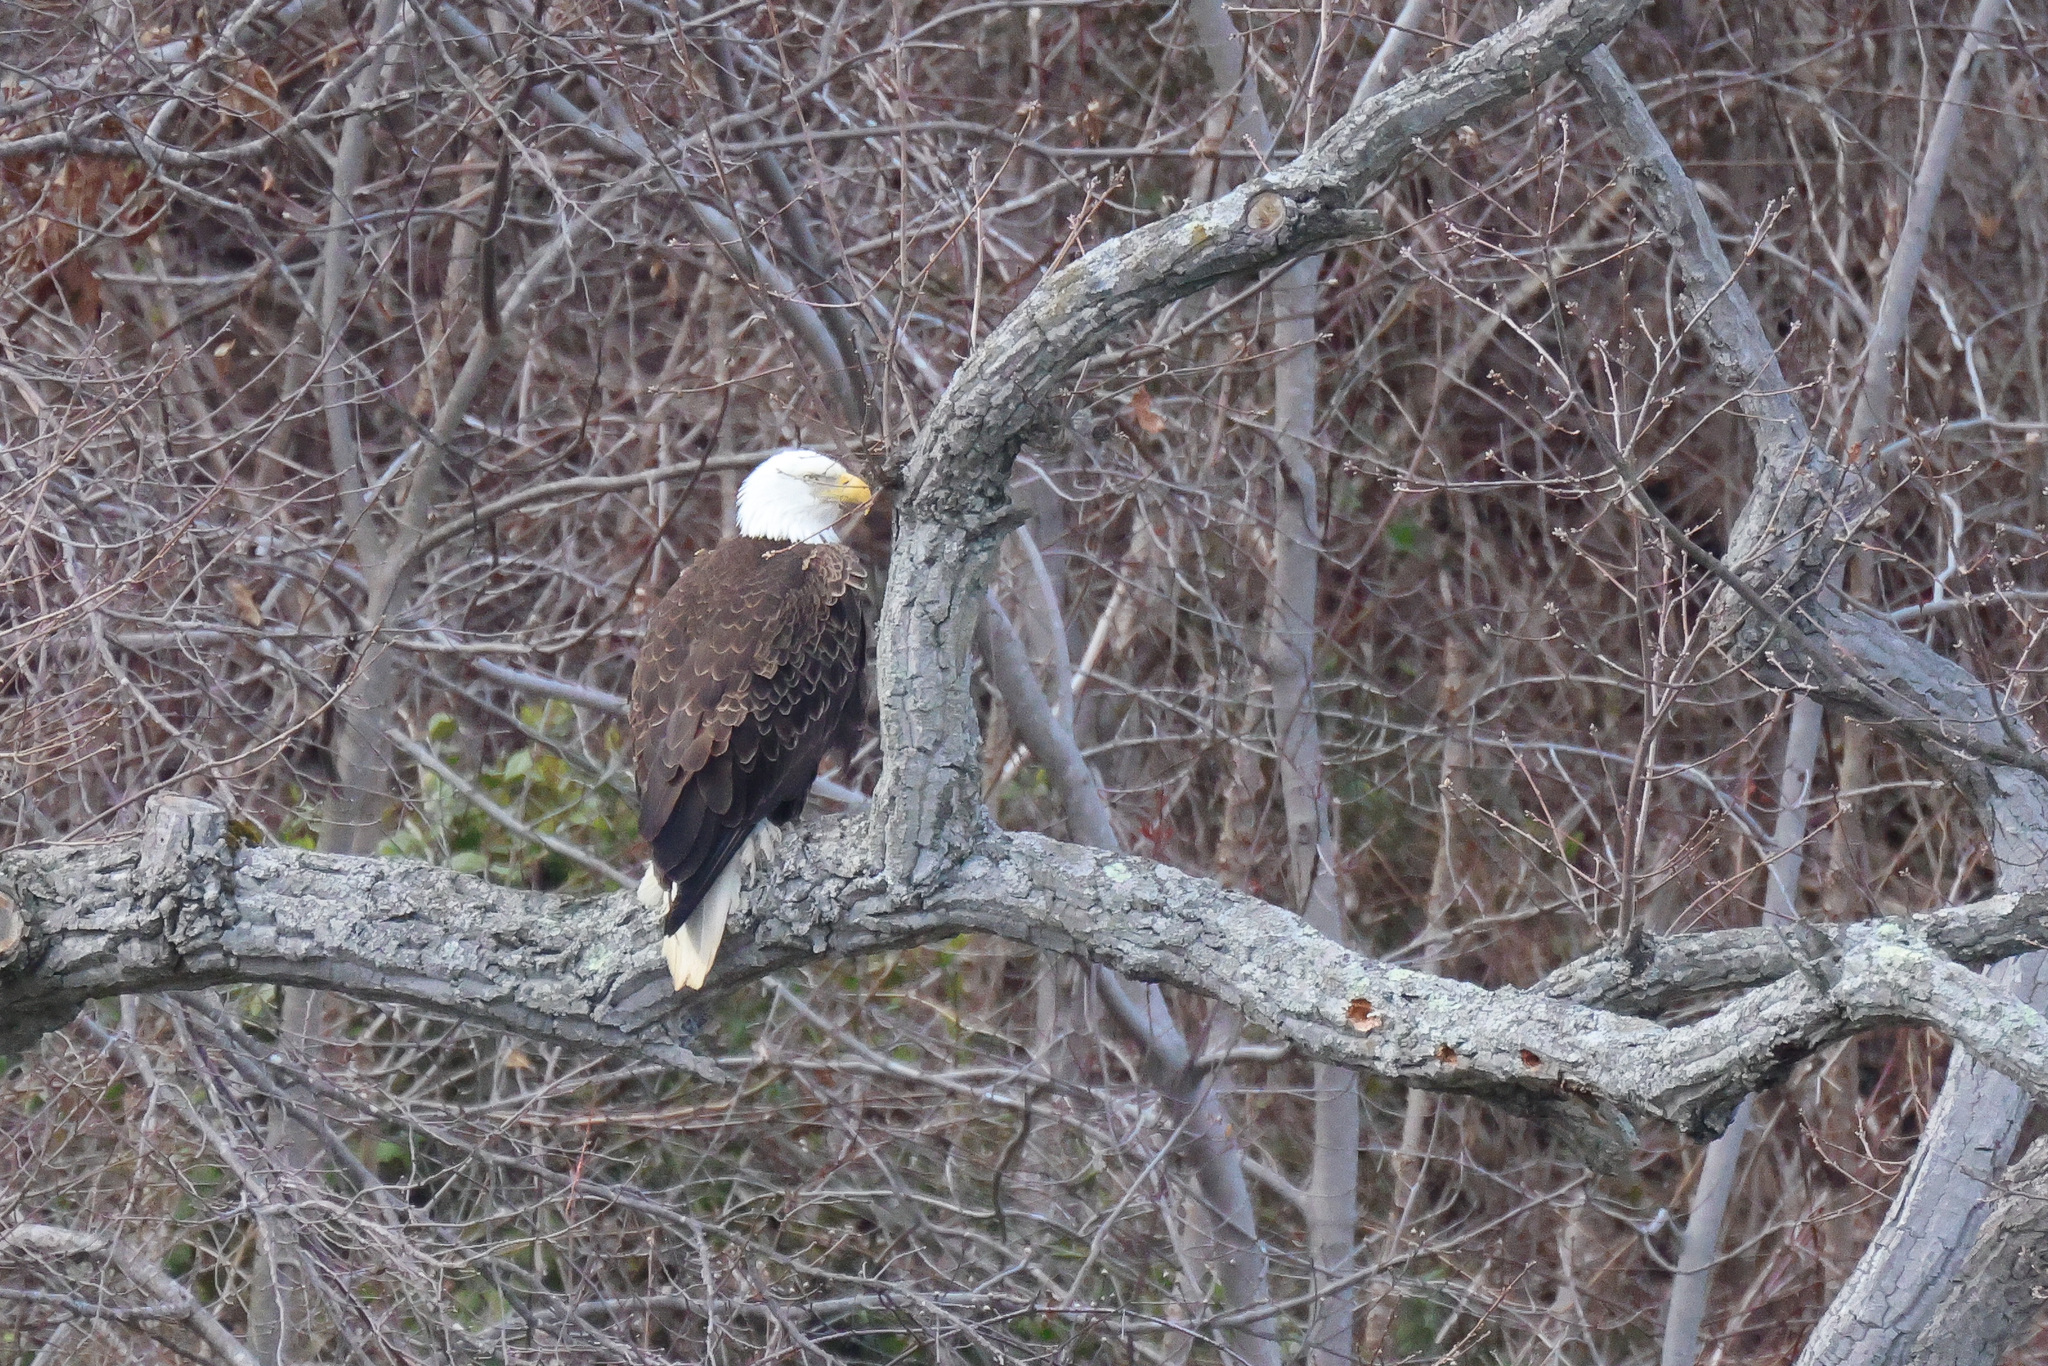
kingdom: Animalia
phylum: Chordata
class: Aves
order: Accipitriformes
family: Accipitridae
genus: Haliaeetus
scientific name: Haliaeetus leucocephalus
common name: Bald eagle
